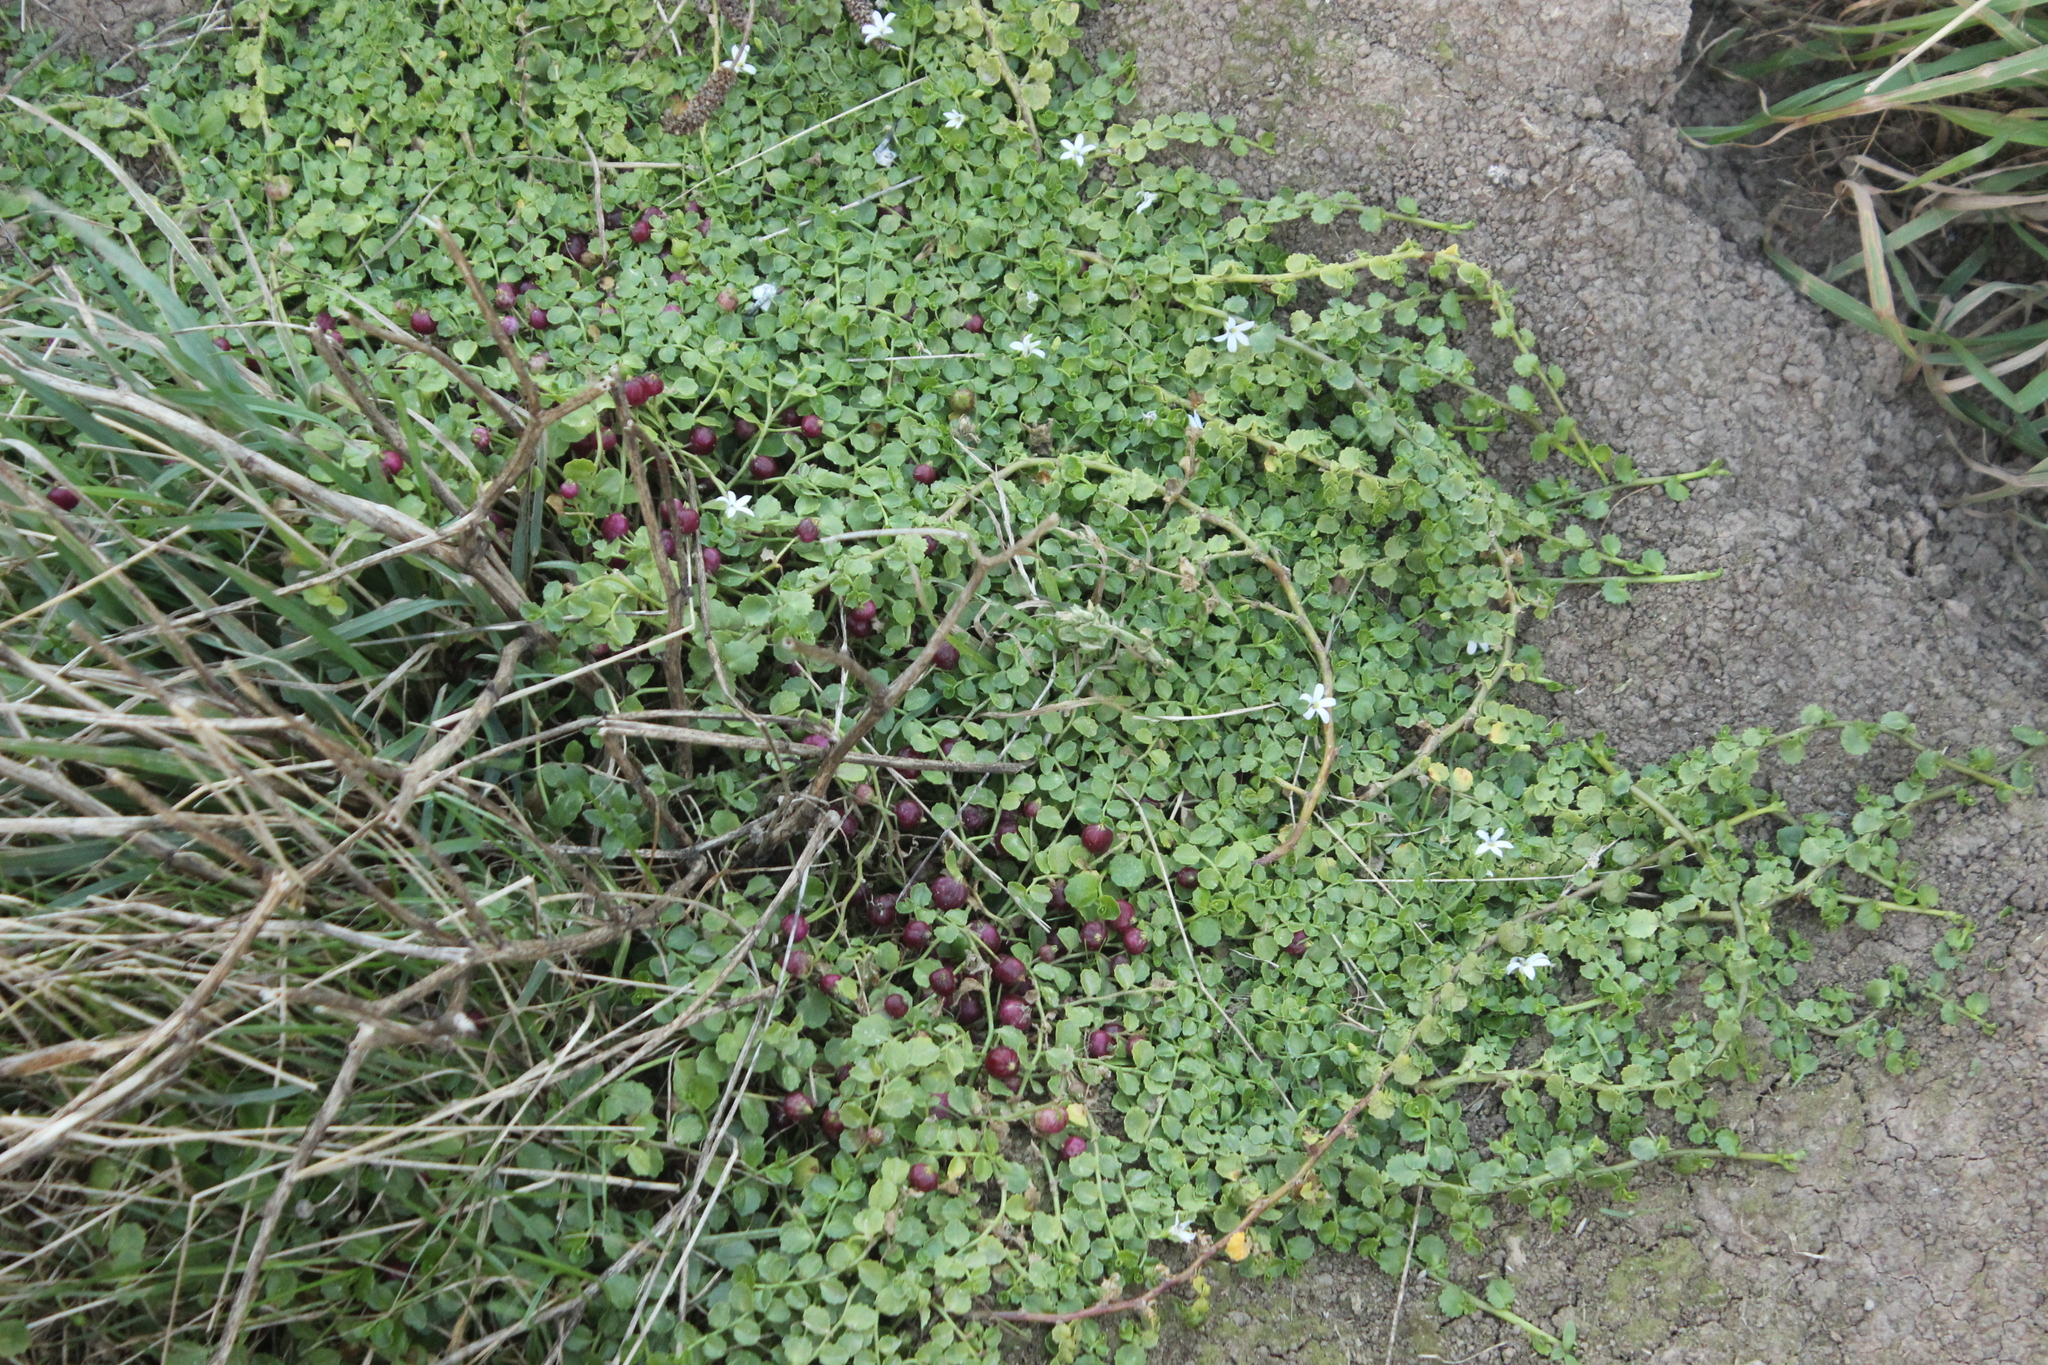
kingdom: Plantae
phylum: Tracheophyta
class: Magnoliopsida
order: Asterales
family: Campanulaceae
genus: Lobelia
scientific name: Lobelia arenaria
